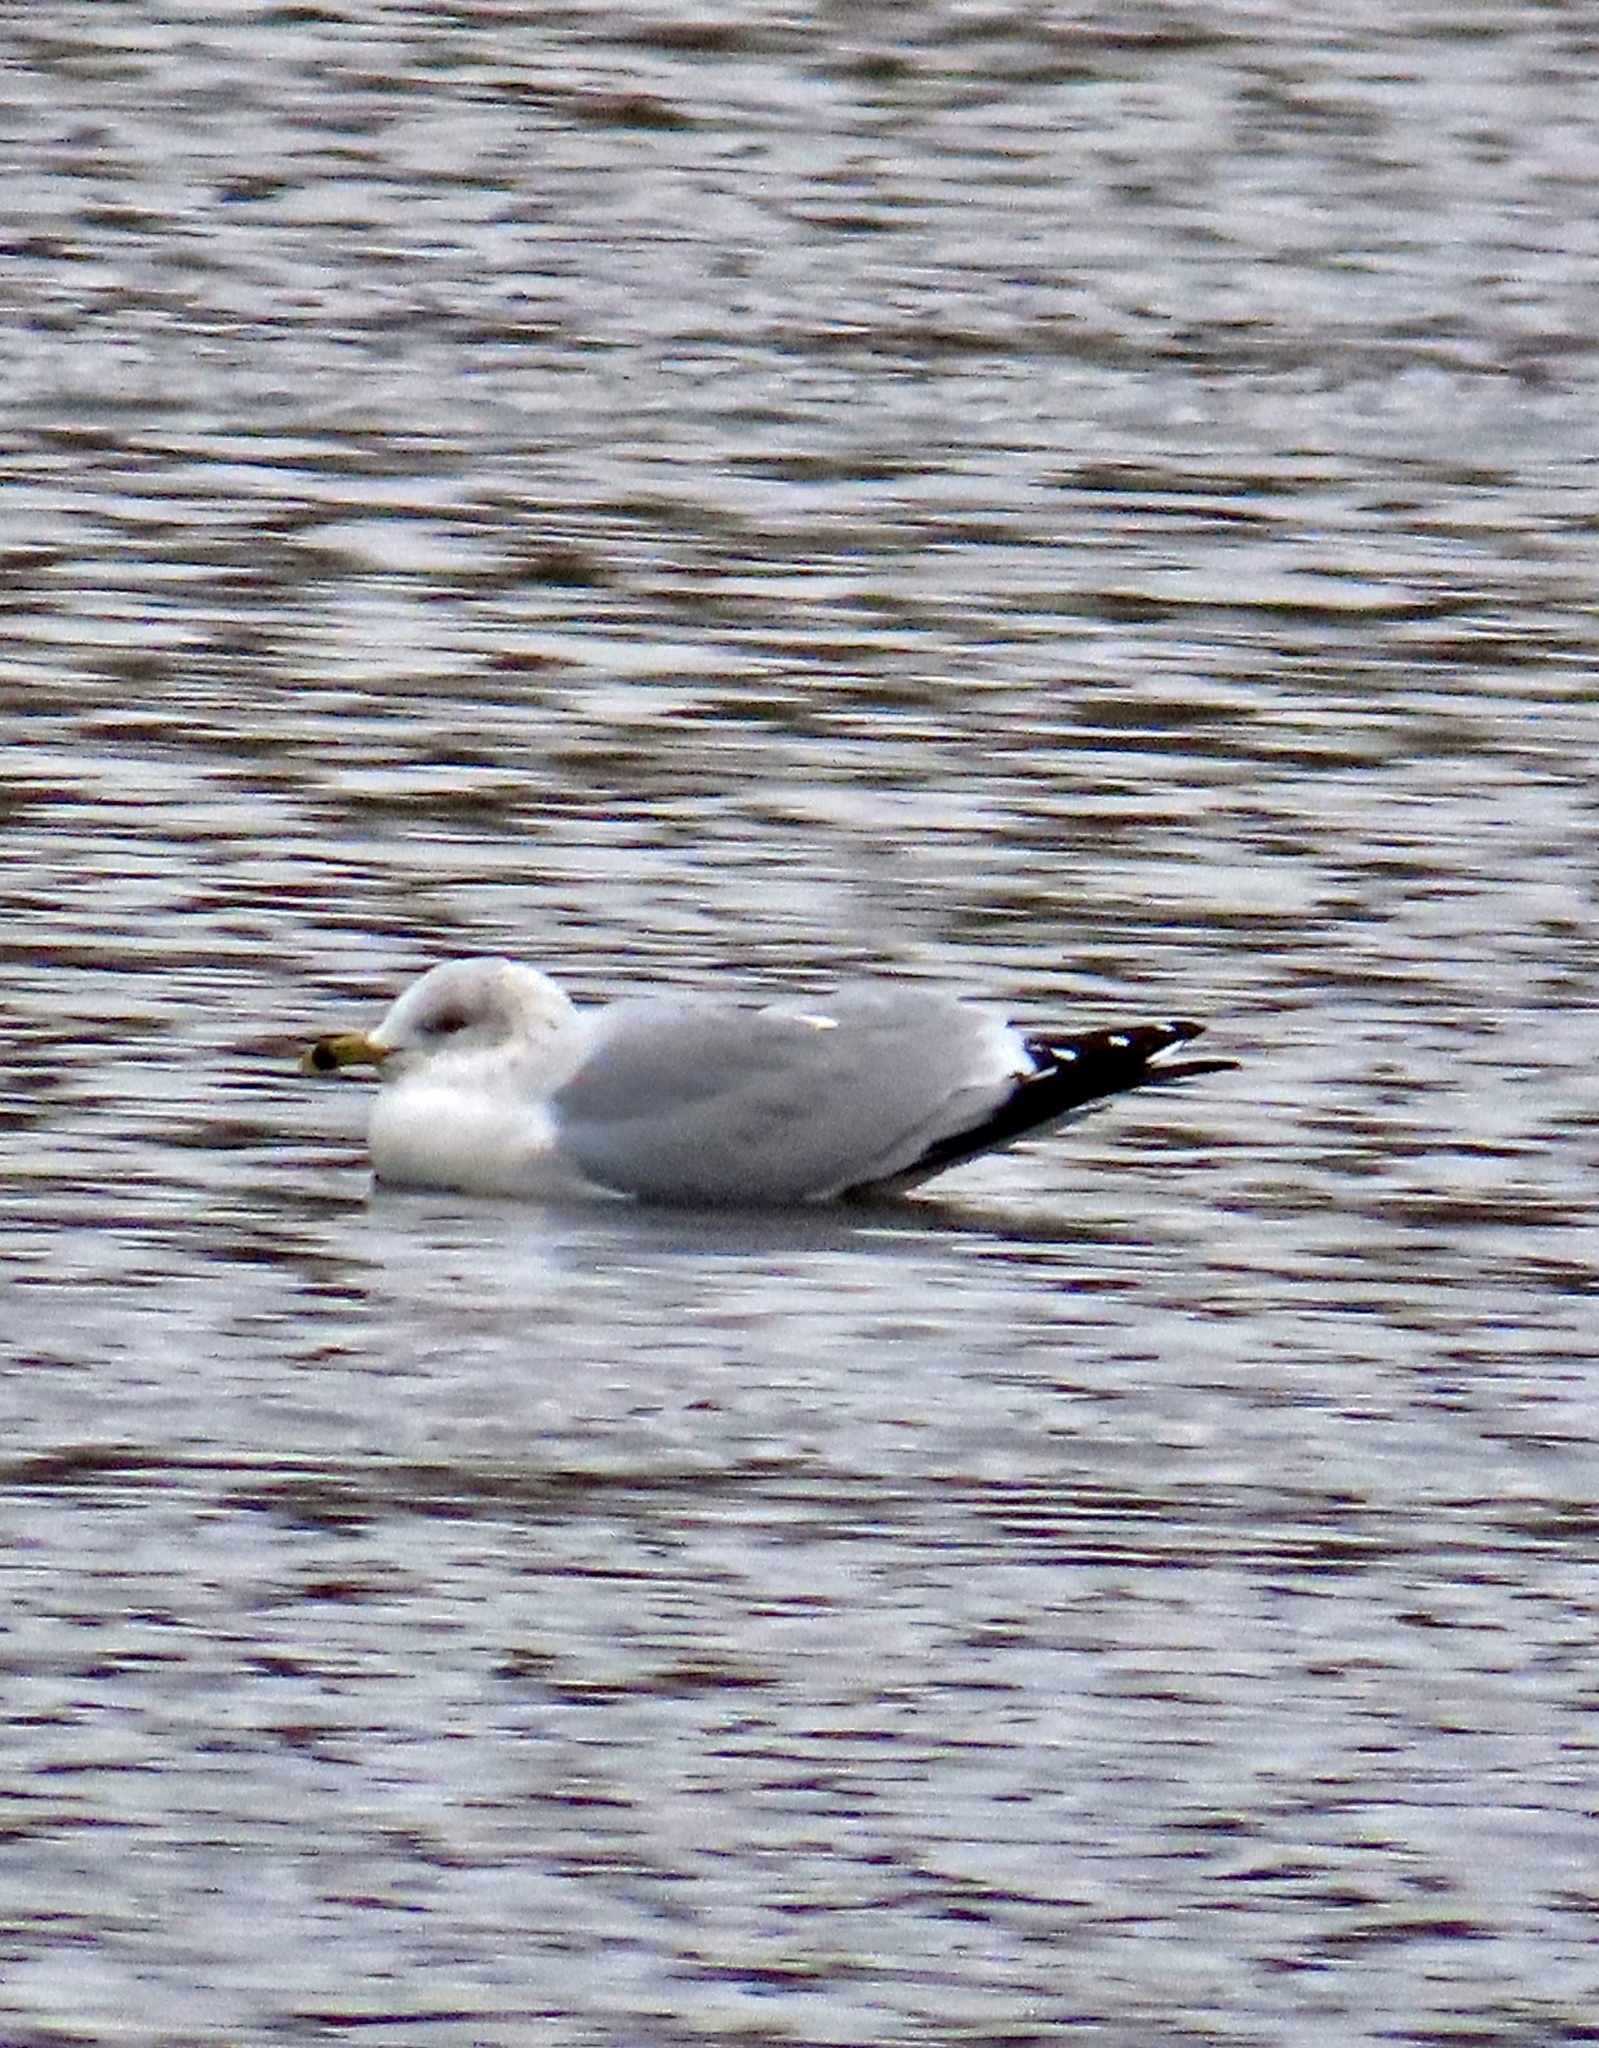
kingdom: Animalia
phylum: Chordata
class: Aves
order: Charadriiformes
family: Laridae
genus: Larus
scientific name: Larus delawarensis
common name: Ring-billed gull
